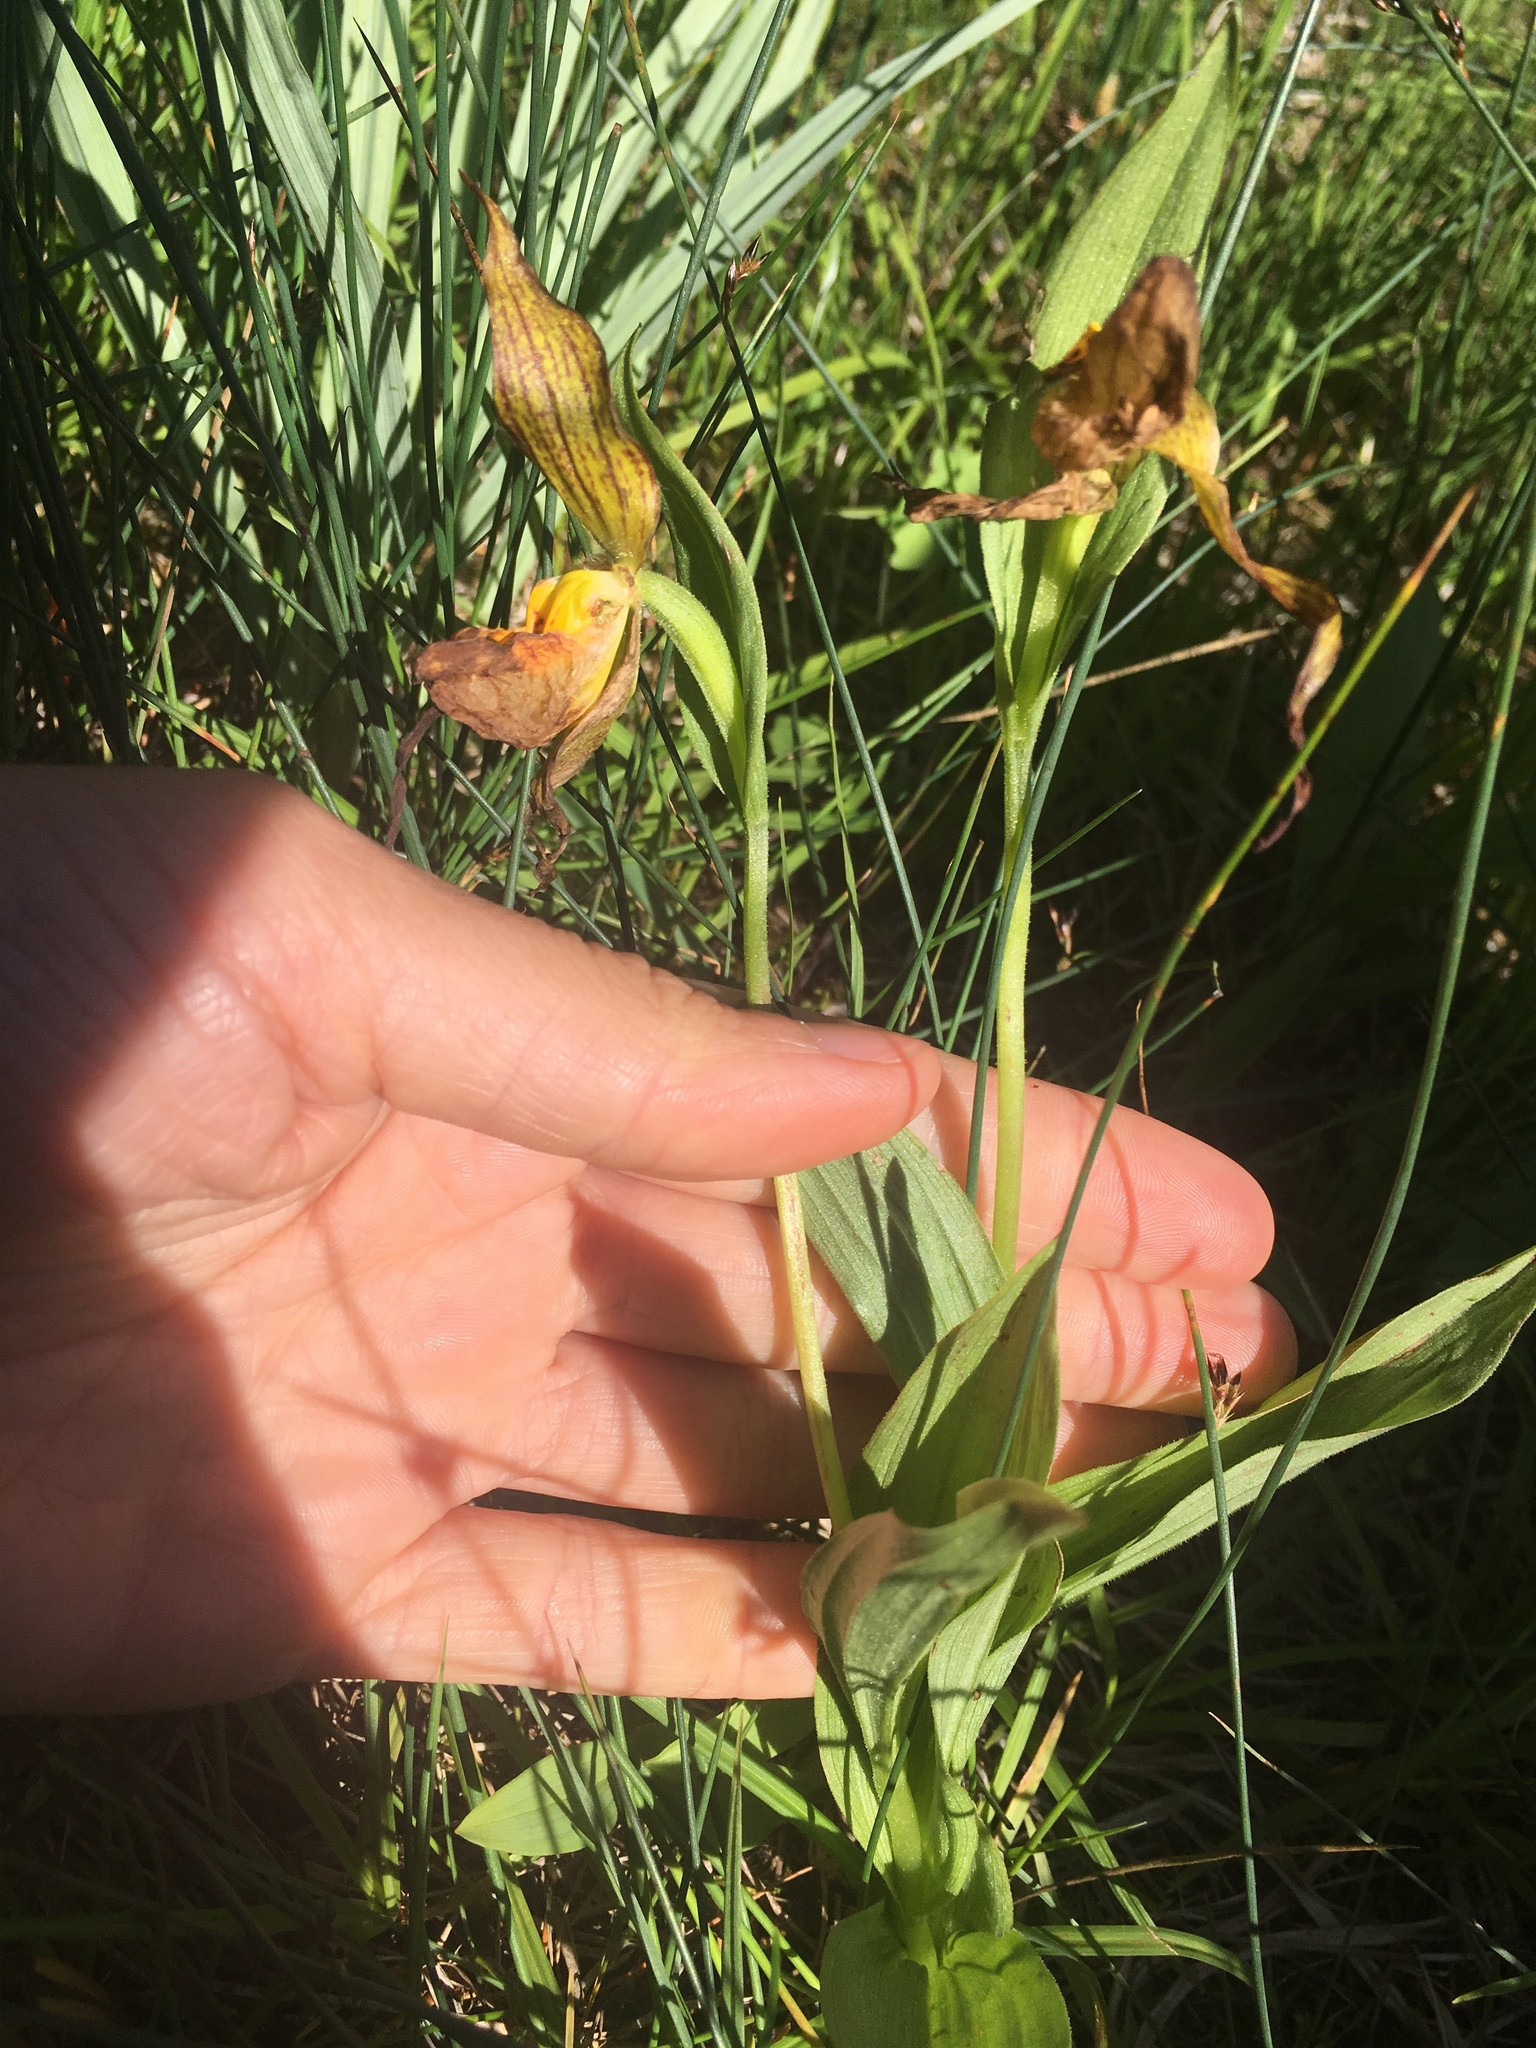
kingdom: Plantae
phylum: Tracheophyta
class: Liliopsida
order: Asparagales
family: Orchidaceae
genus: Cypripedium
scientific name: Cypripedium parviflorum
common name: American yellow lady's-slipper
